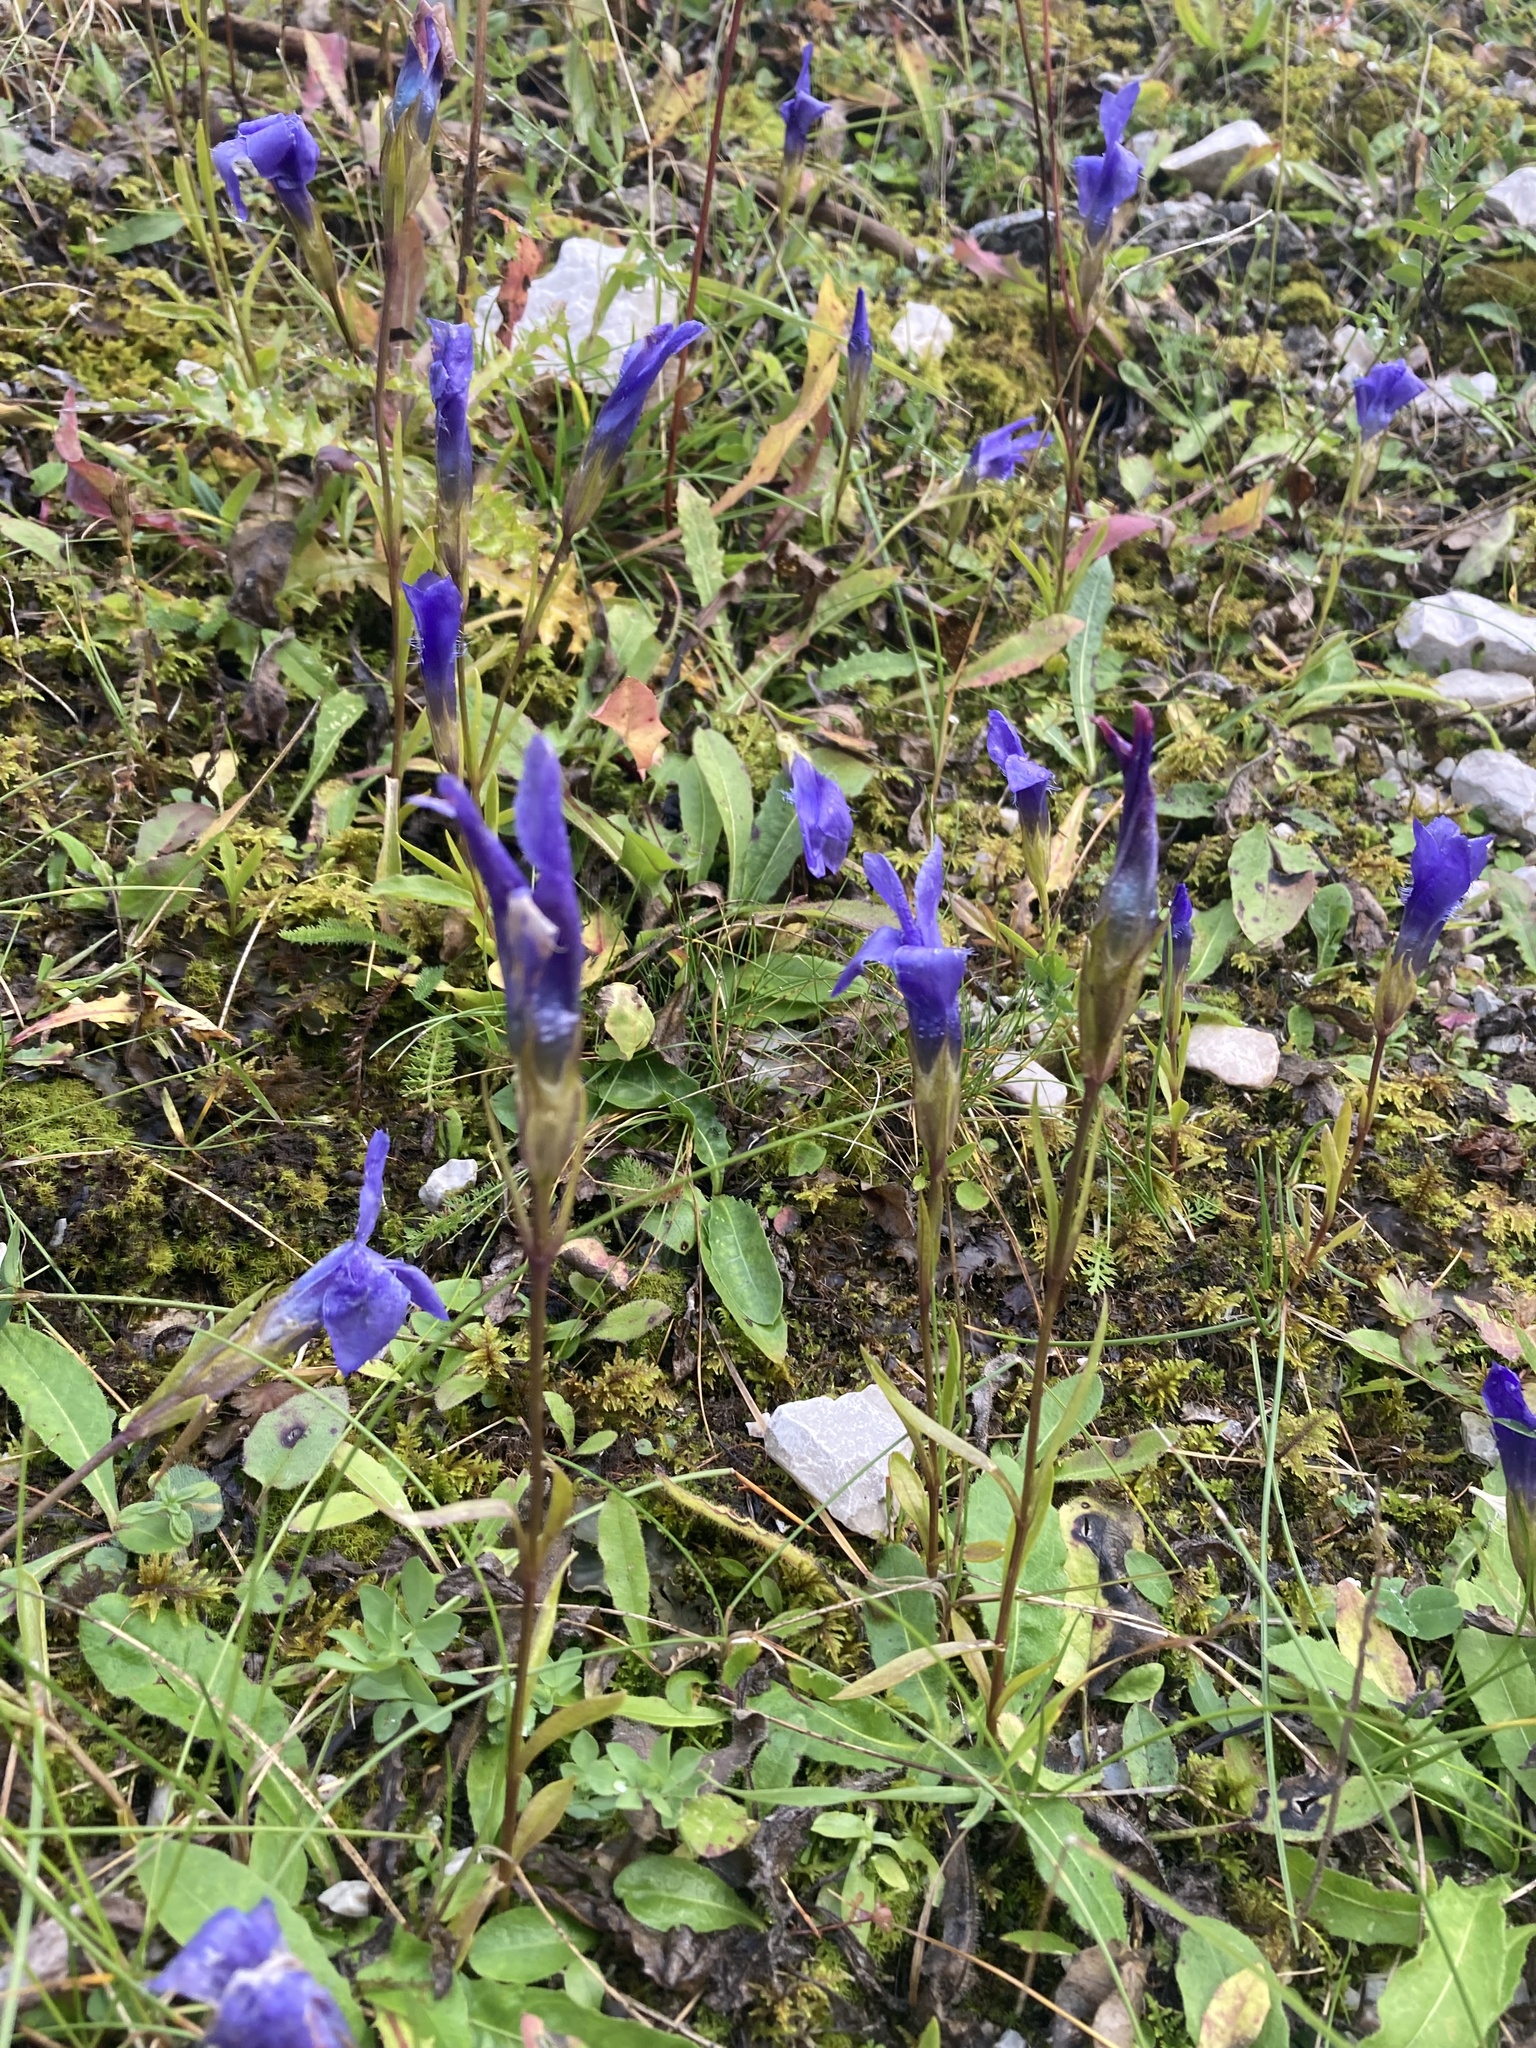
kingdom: Plantae
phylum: Tracheophyta
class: Magnoliopsida
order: Gentianales
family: Gentianaceae
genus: Gentianopsis
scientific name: Gentianopsis ciliata
